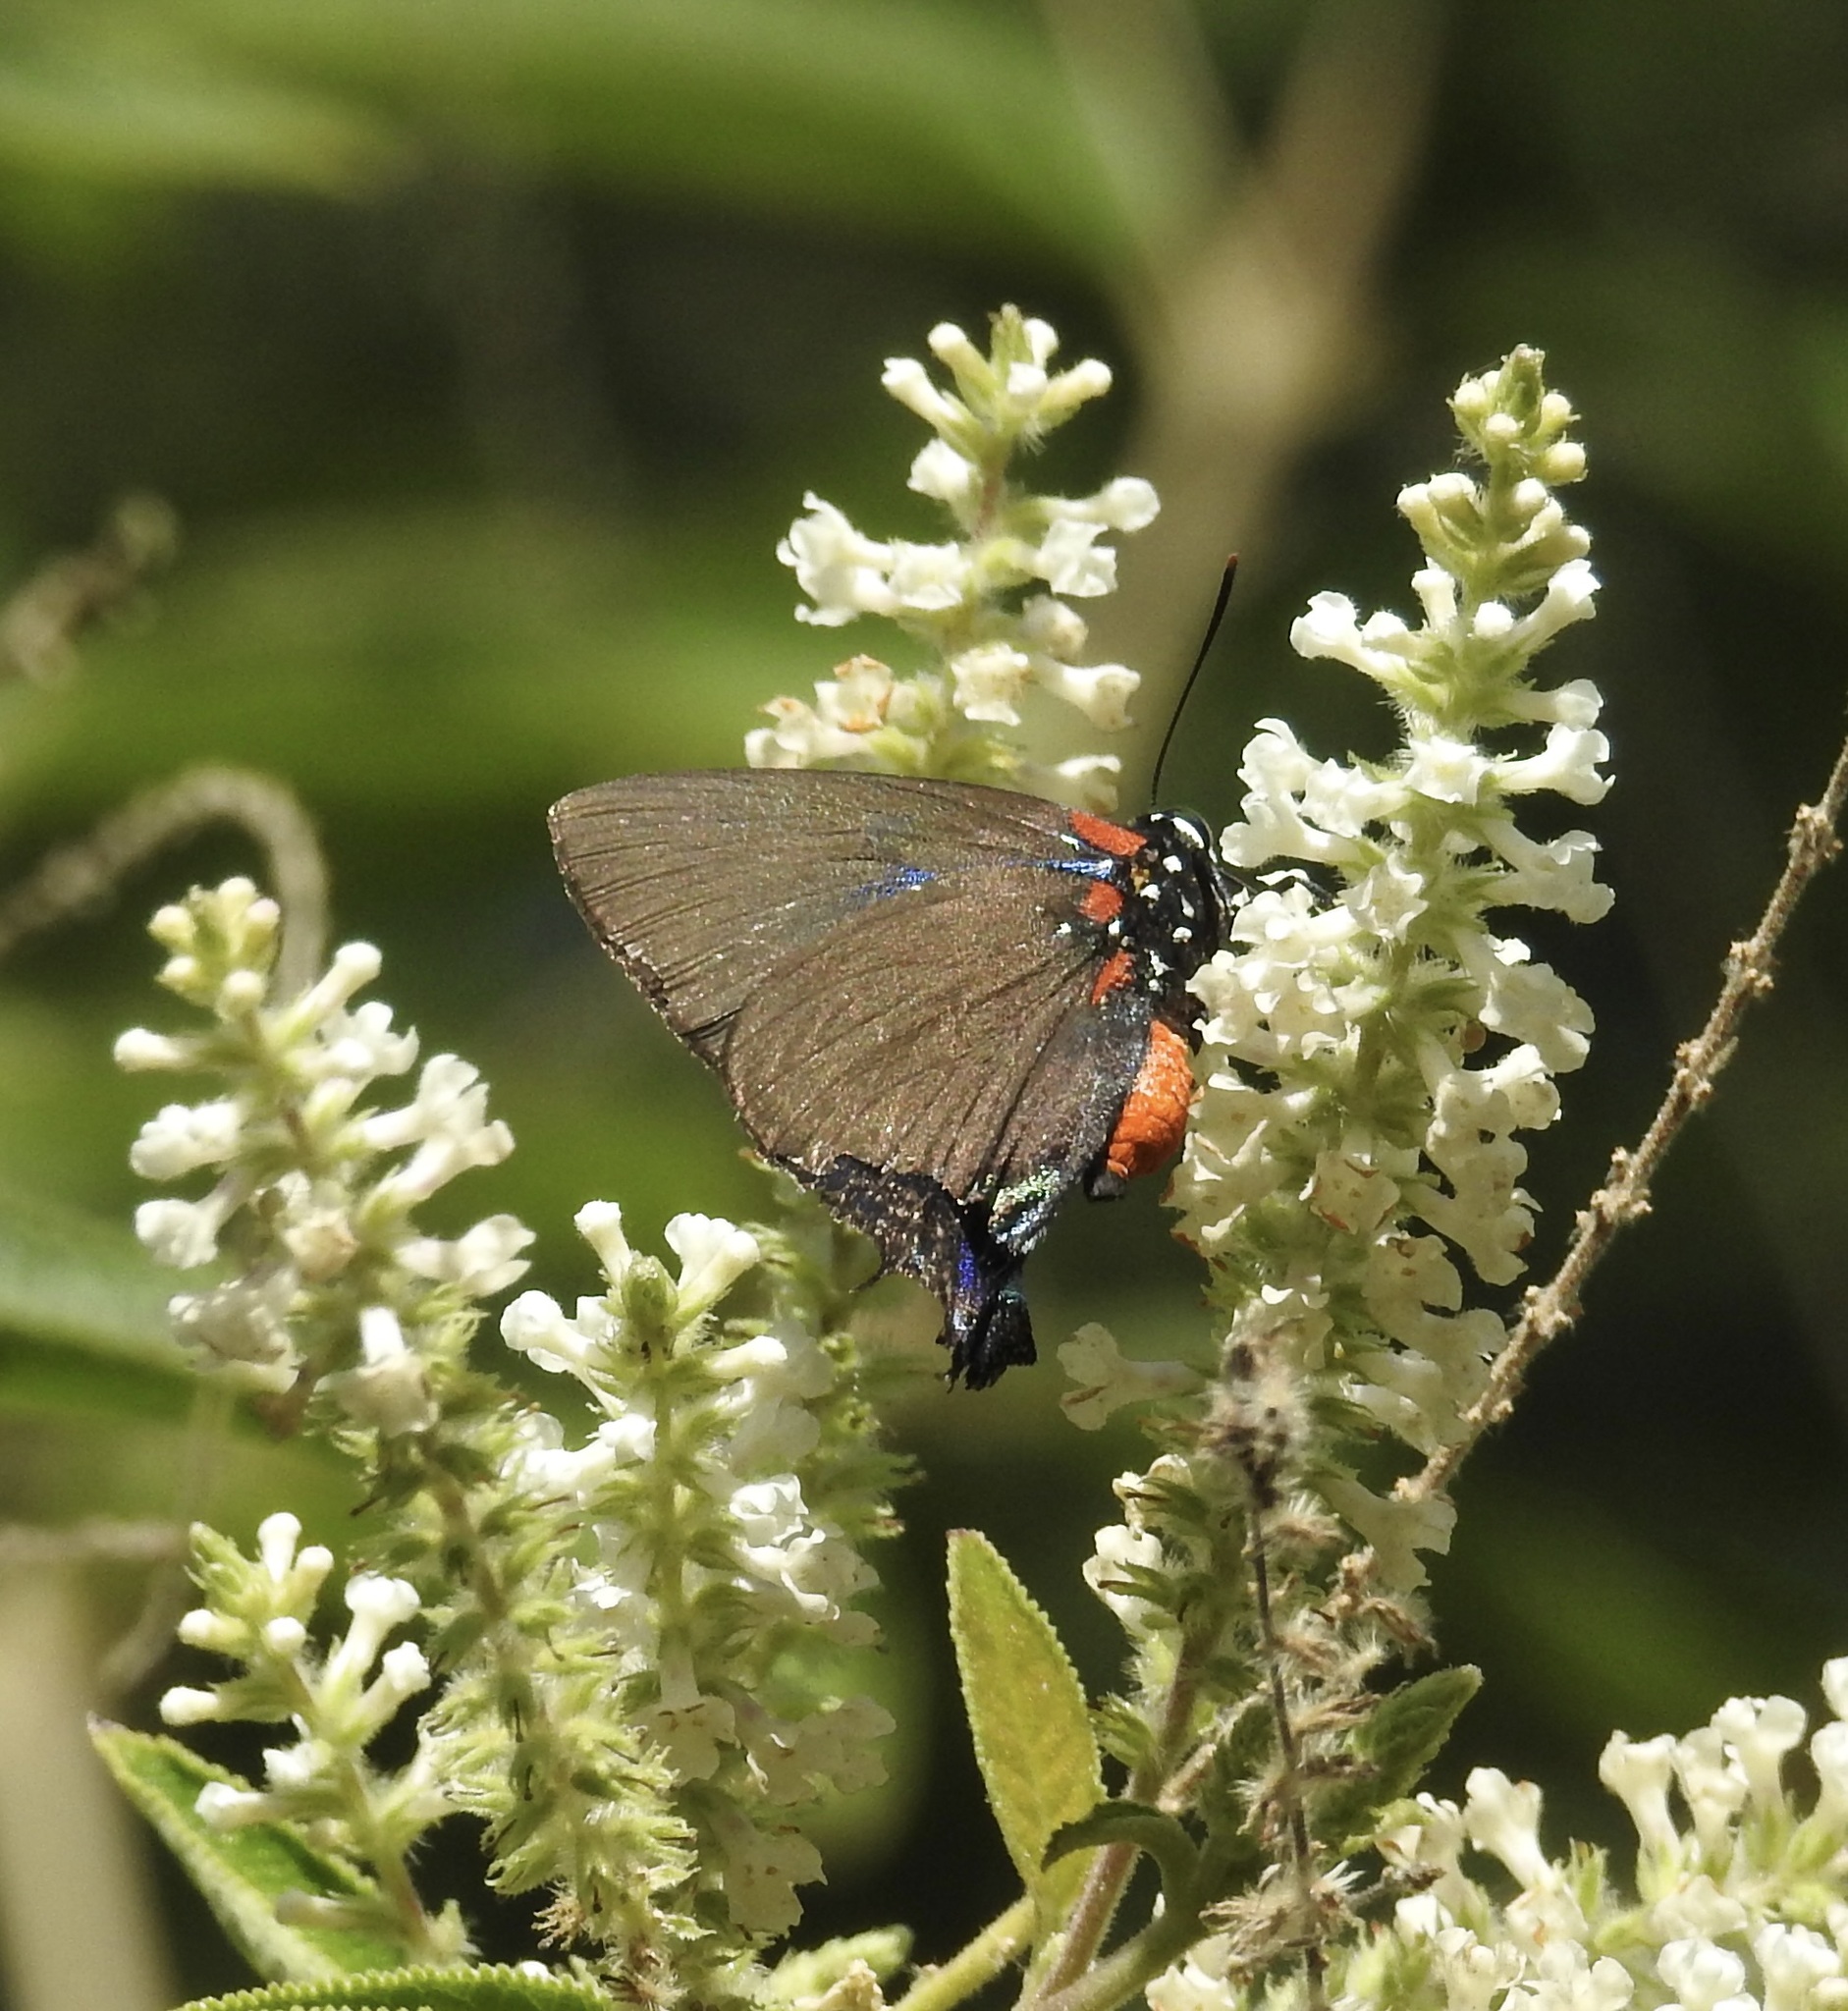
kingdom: Animalia
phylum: Arthropoda
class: Insecta
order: Lepidoptera
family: Lycaenidae
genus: Atlides
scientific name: Atlides halesus
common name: Great purple hairstreak
